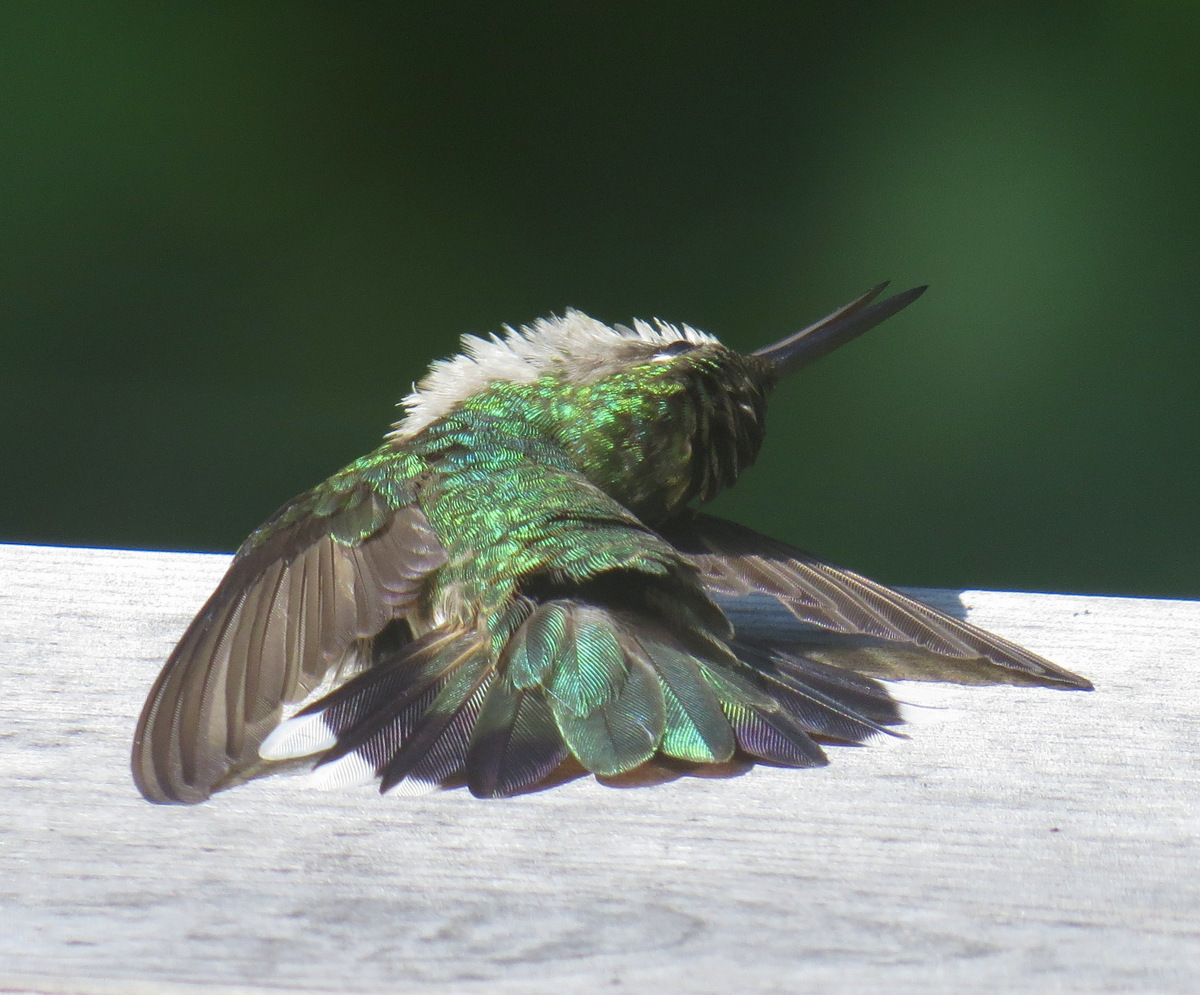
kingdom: Animalia
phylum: Chordata
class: Aves
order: Apodiformes
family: Trochilidae
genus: Archilochus
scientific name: Archilochus colubris
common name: Ruby-throated hummingbird
